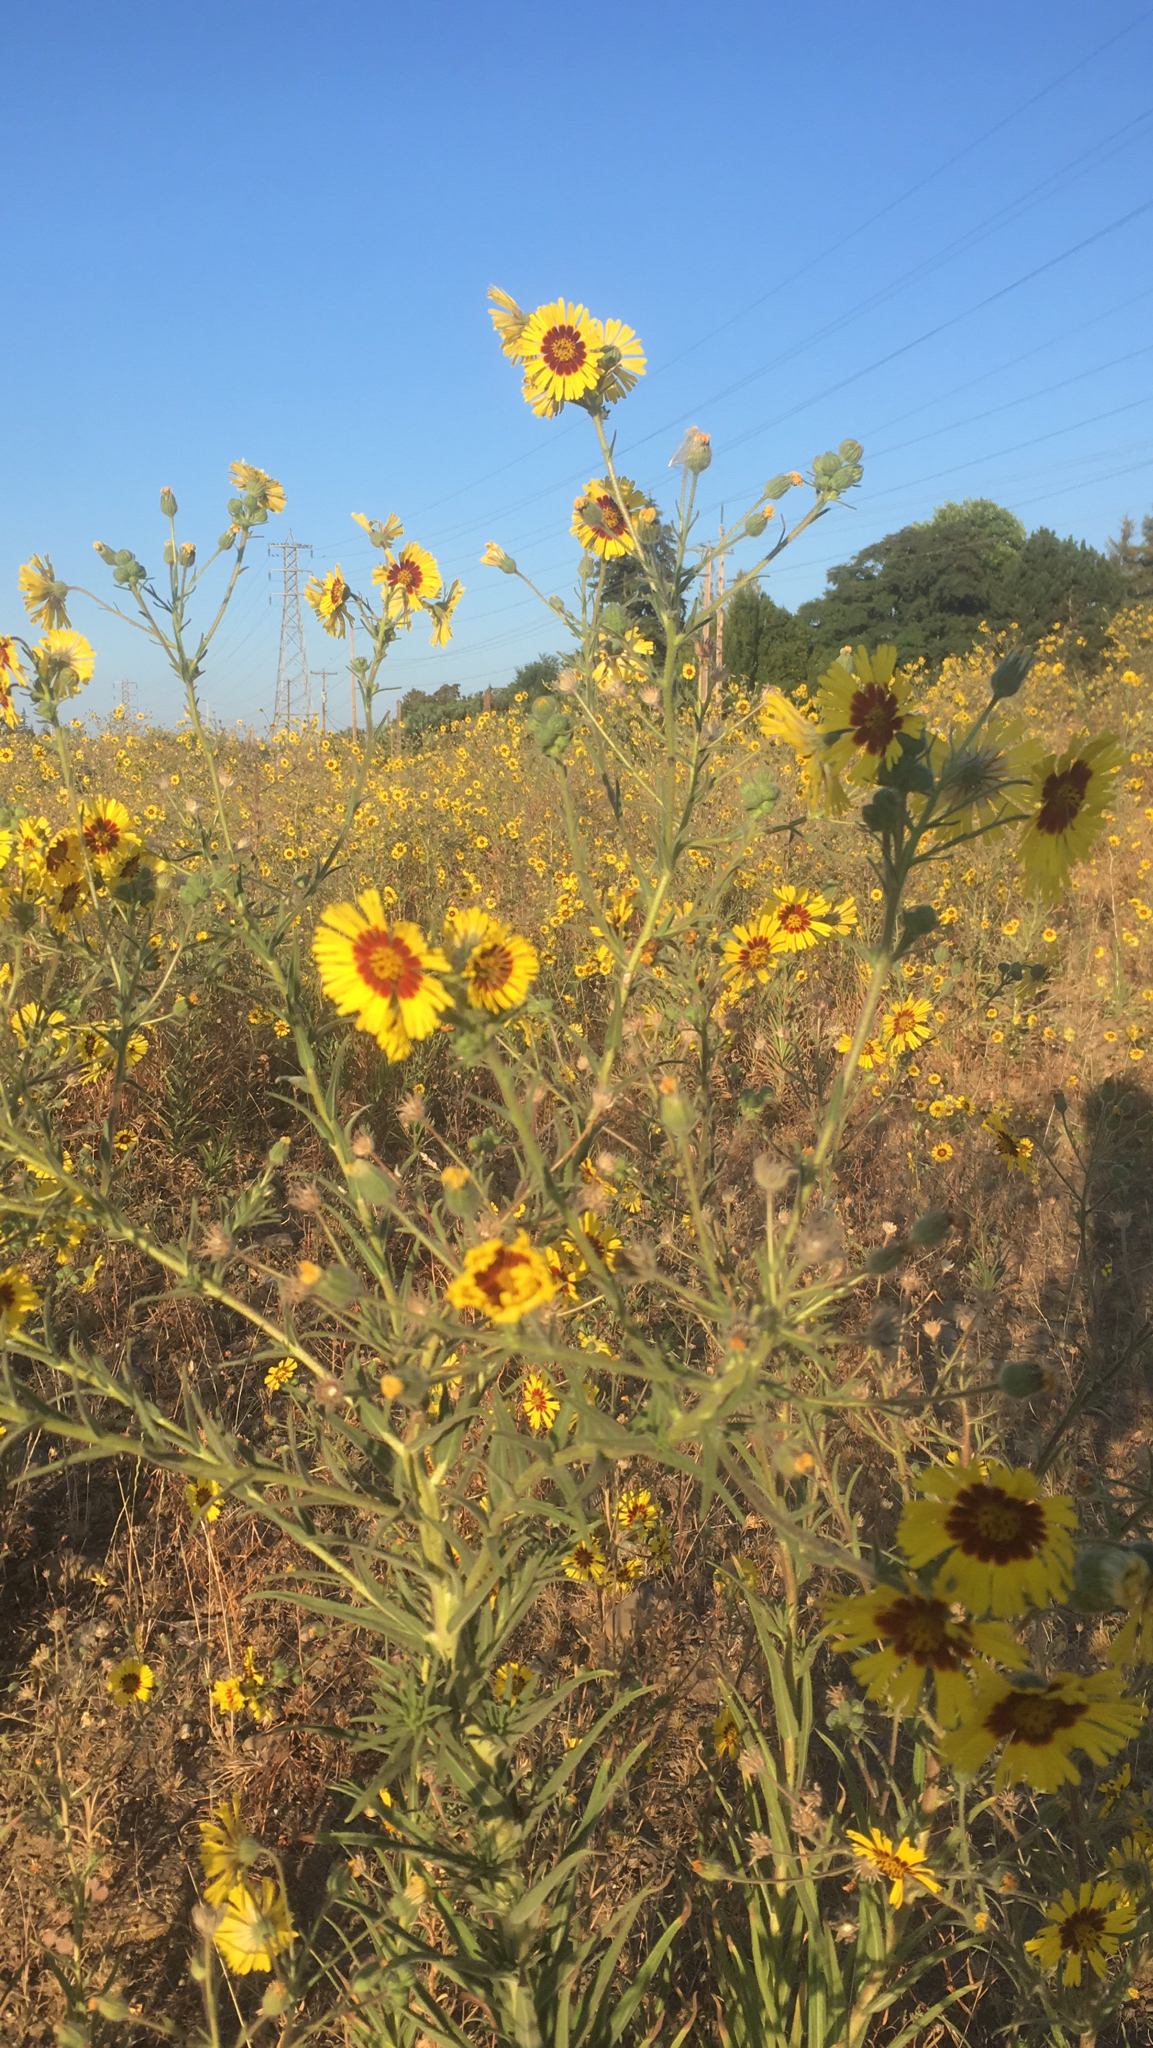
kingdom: Plantae
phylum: Tracheophyta
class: Magnoliopsida
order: Asterales
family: Asteraceae
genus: Madia
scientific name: Madia elegans
